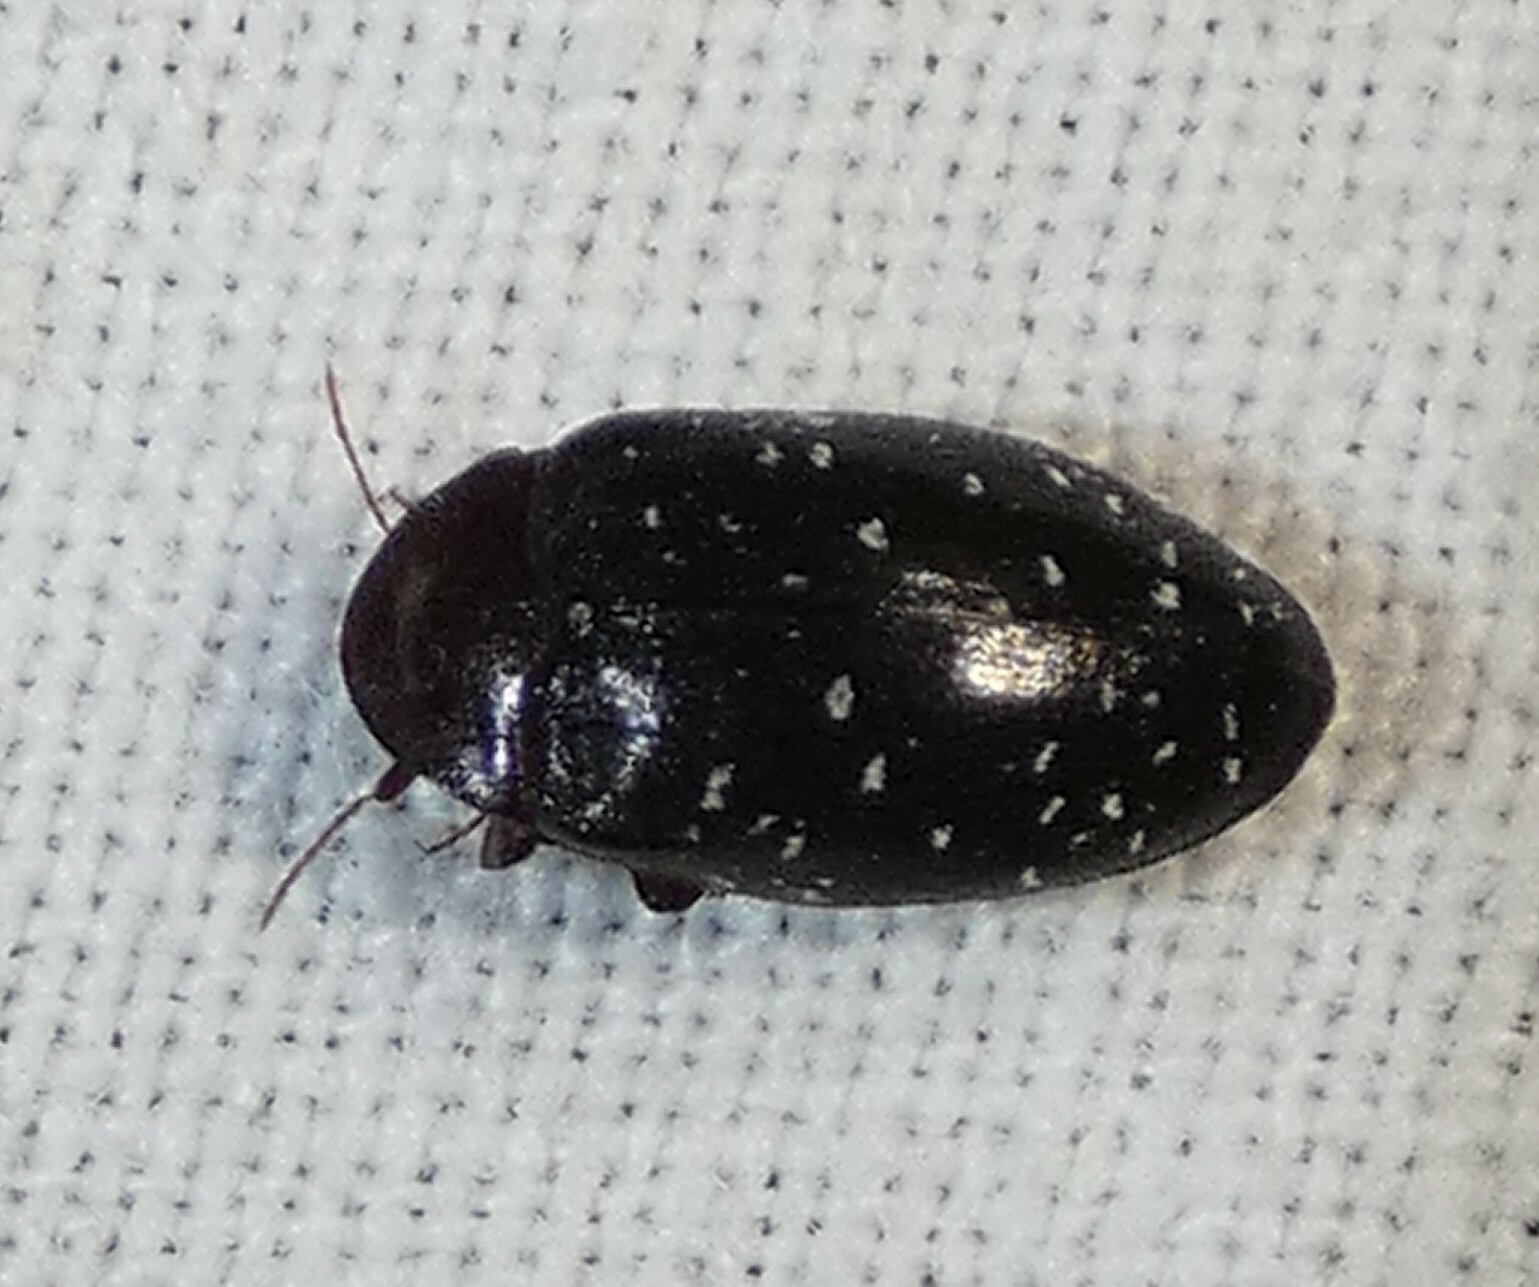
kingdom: Animalia
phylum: Arthropoda
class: Insecta
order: Coleoptera
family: Chelonariidae
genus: Chelonarium
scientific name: Chelonarium lecontei
